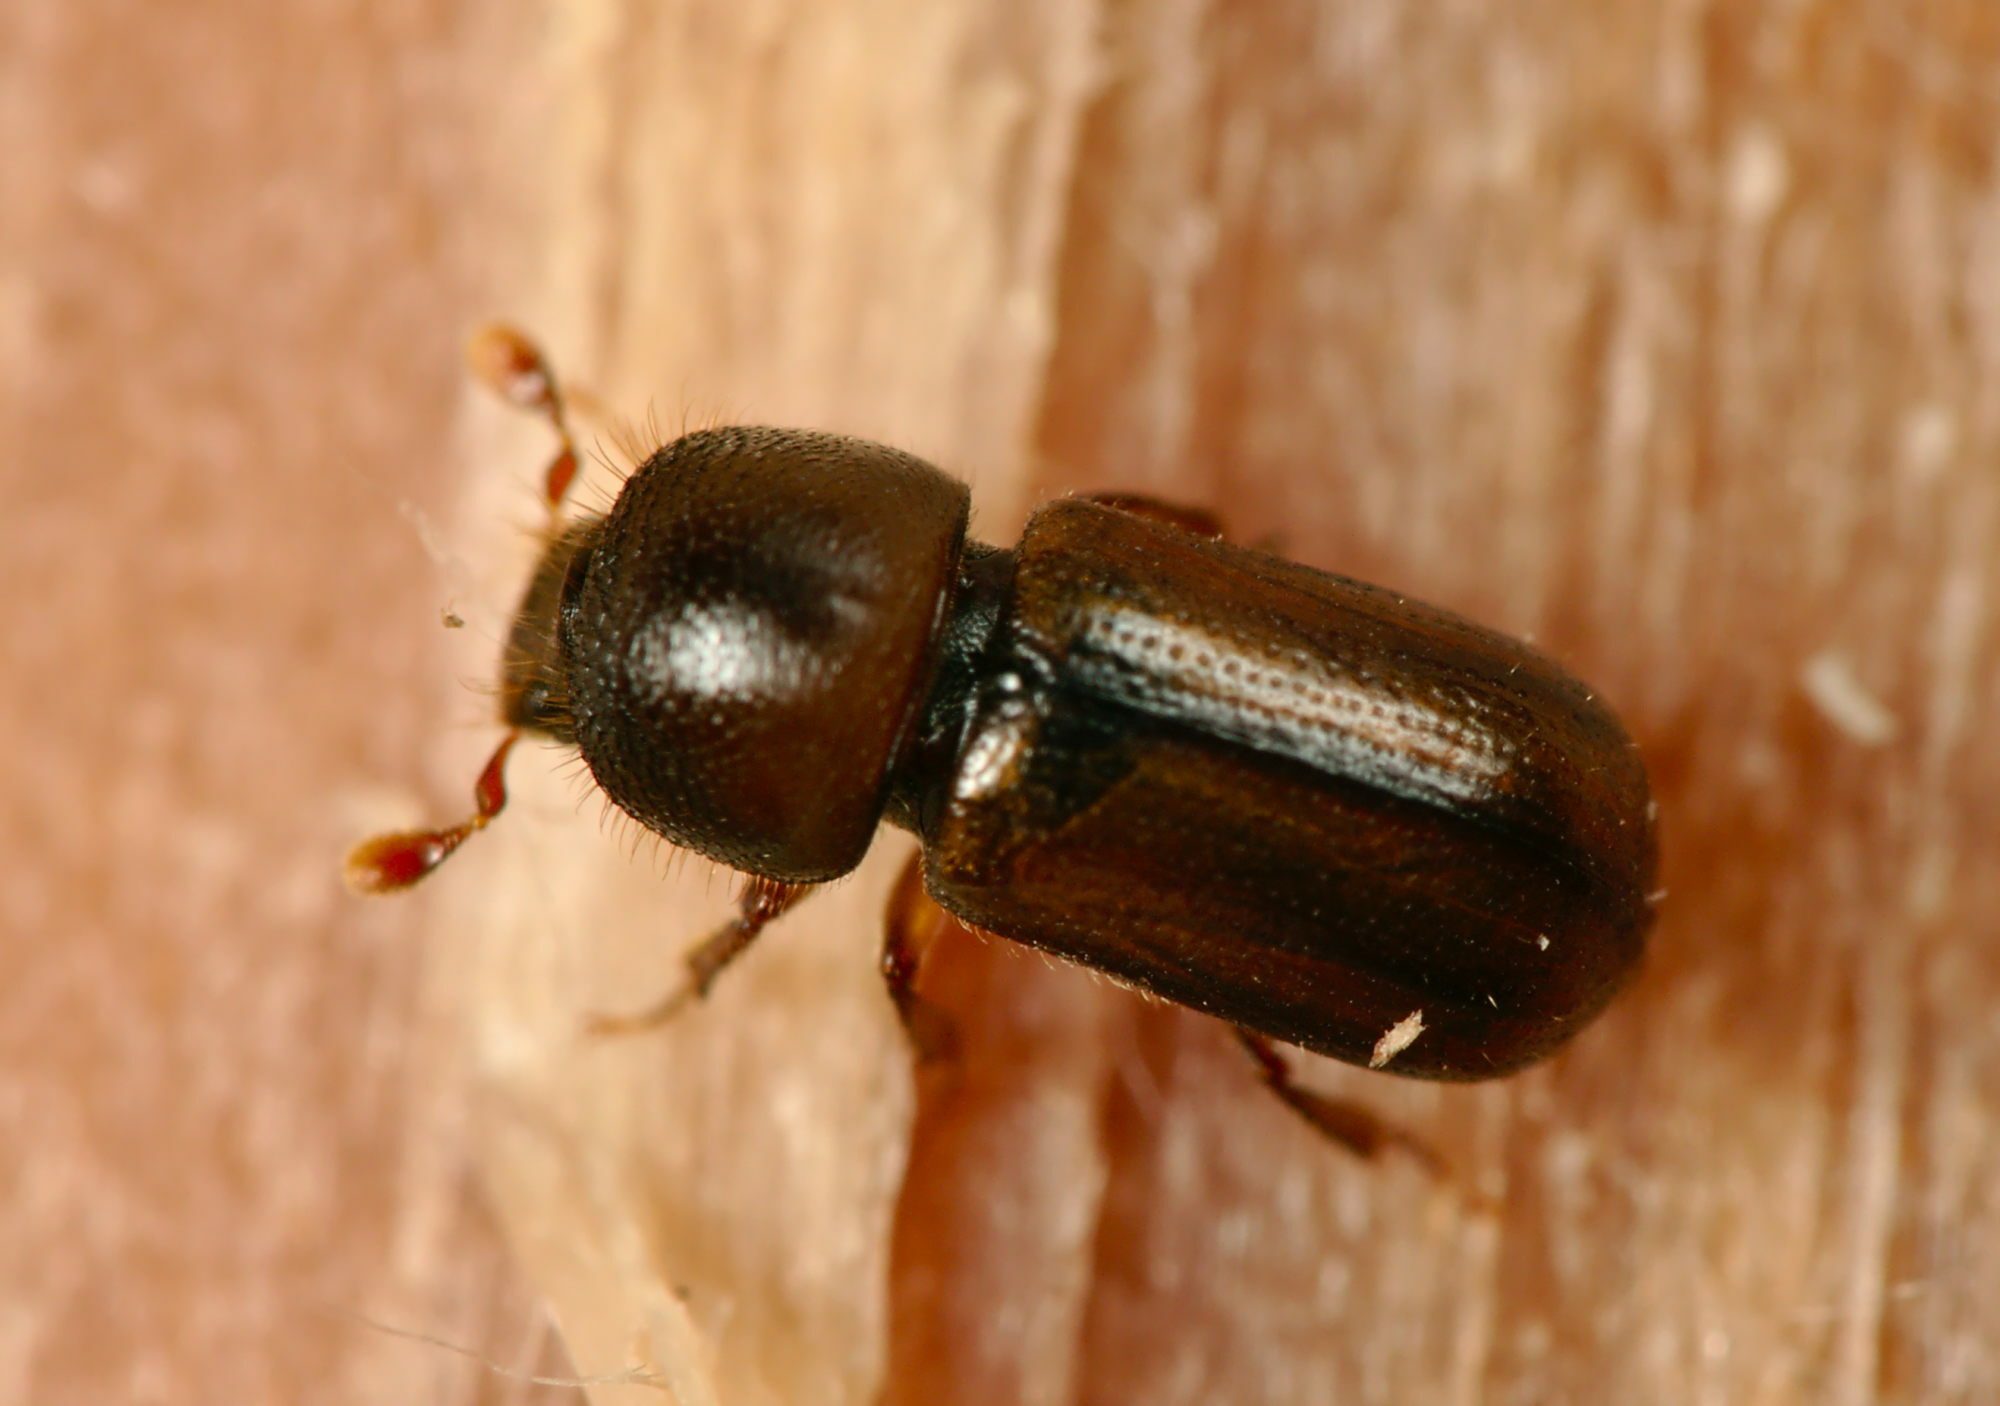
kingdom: Animalia
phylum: Arthropoda
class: Insecta
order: Coleoptera
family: Curculionidae
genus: Trypodendron
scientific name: Trypodendron lineatum
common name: Lineate bark beetle
